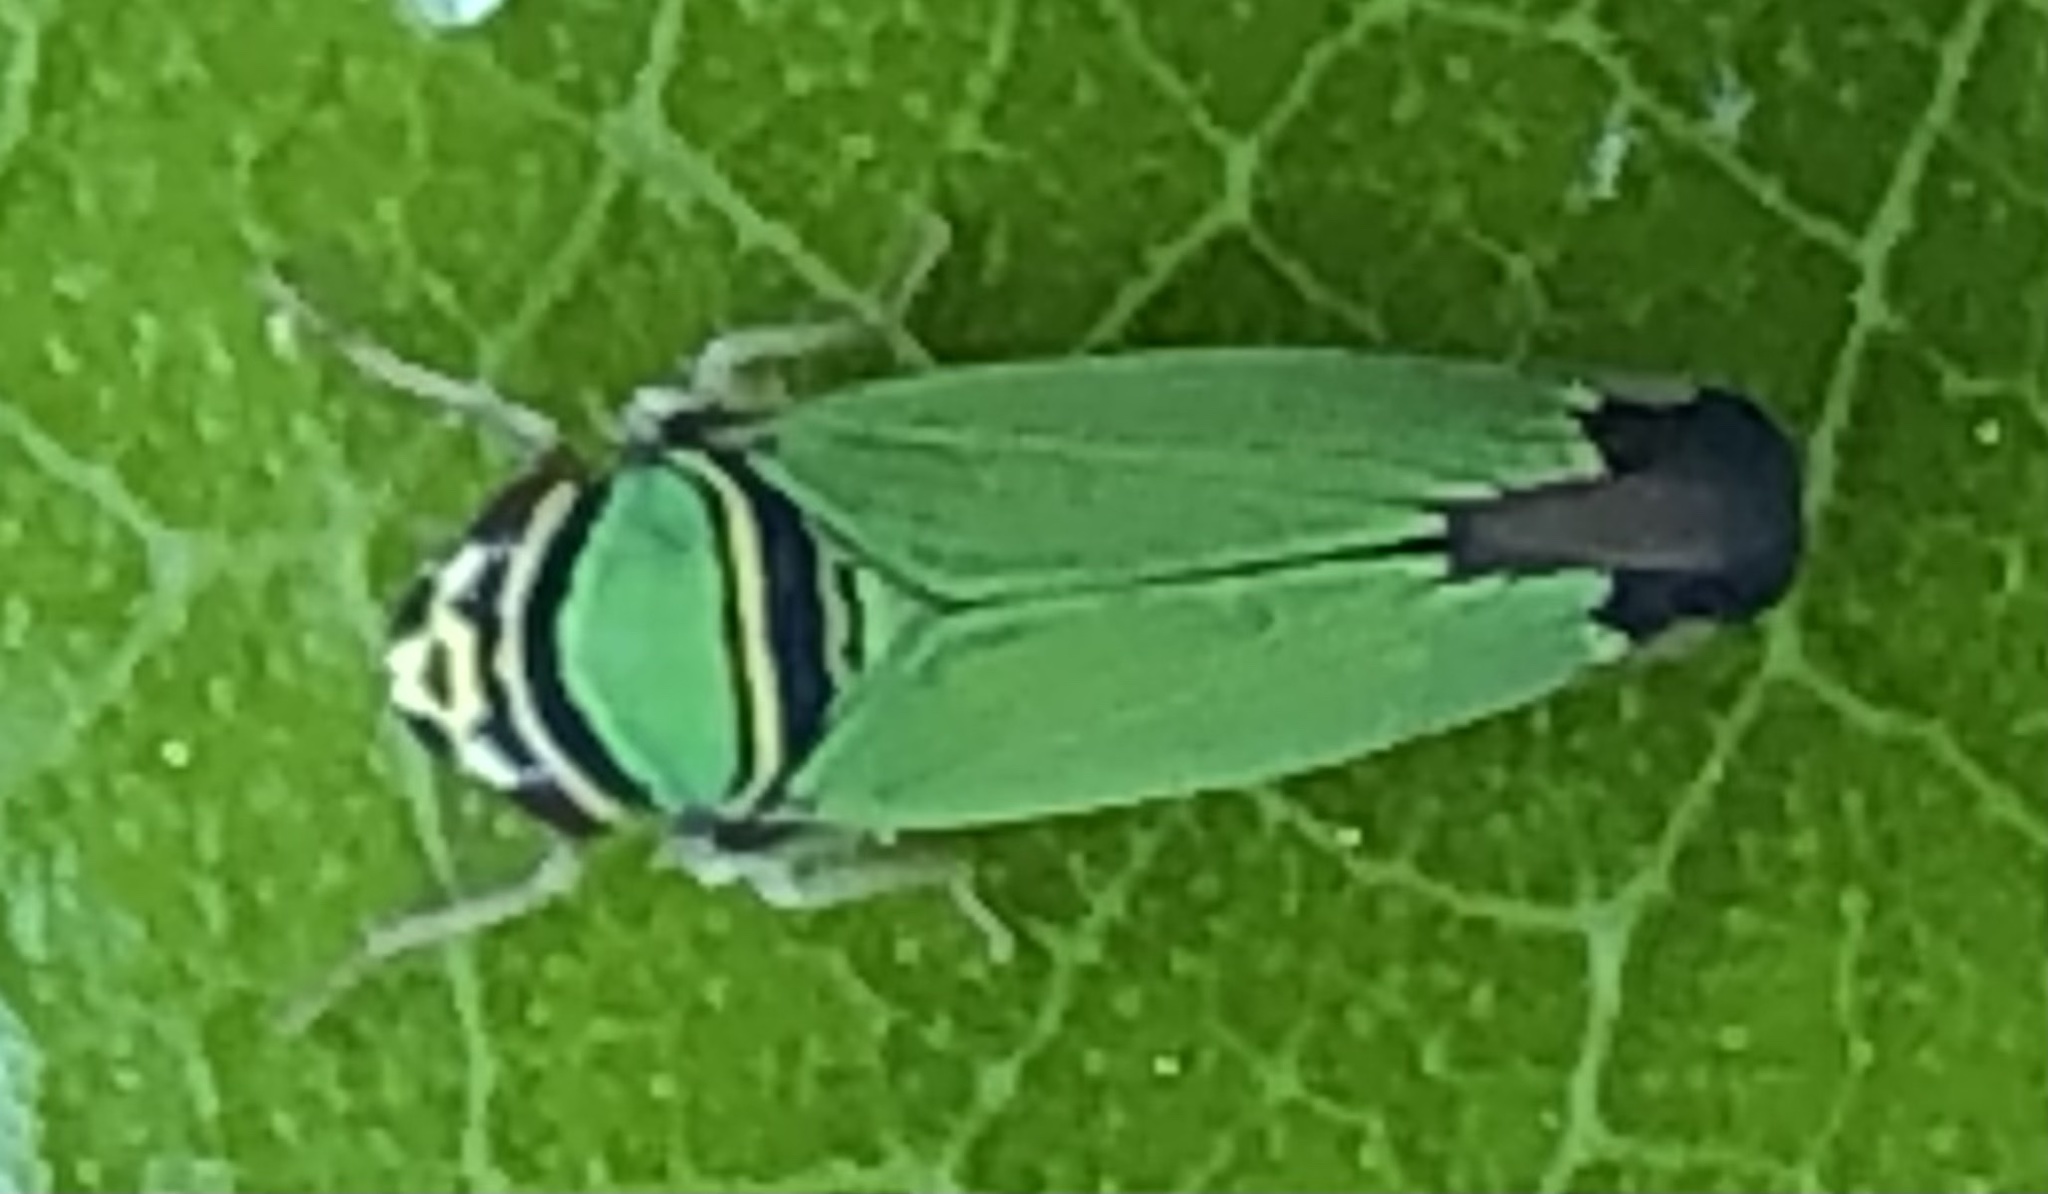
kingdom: Animalia
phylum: Arthropoda
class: Insecta
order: Hemiptera
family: Cicadellidae
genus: Tylozygus
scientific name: Tylozygus geometricus
